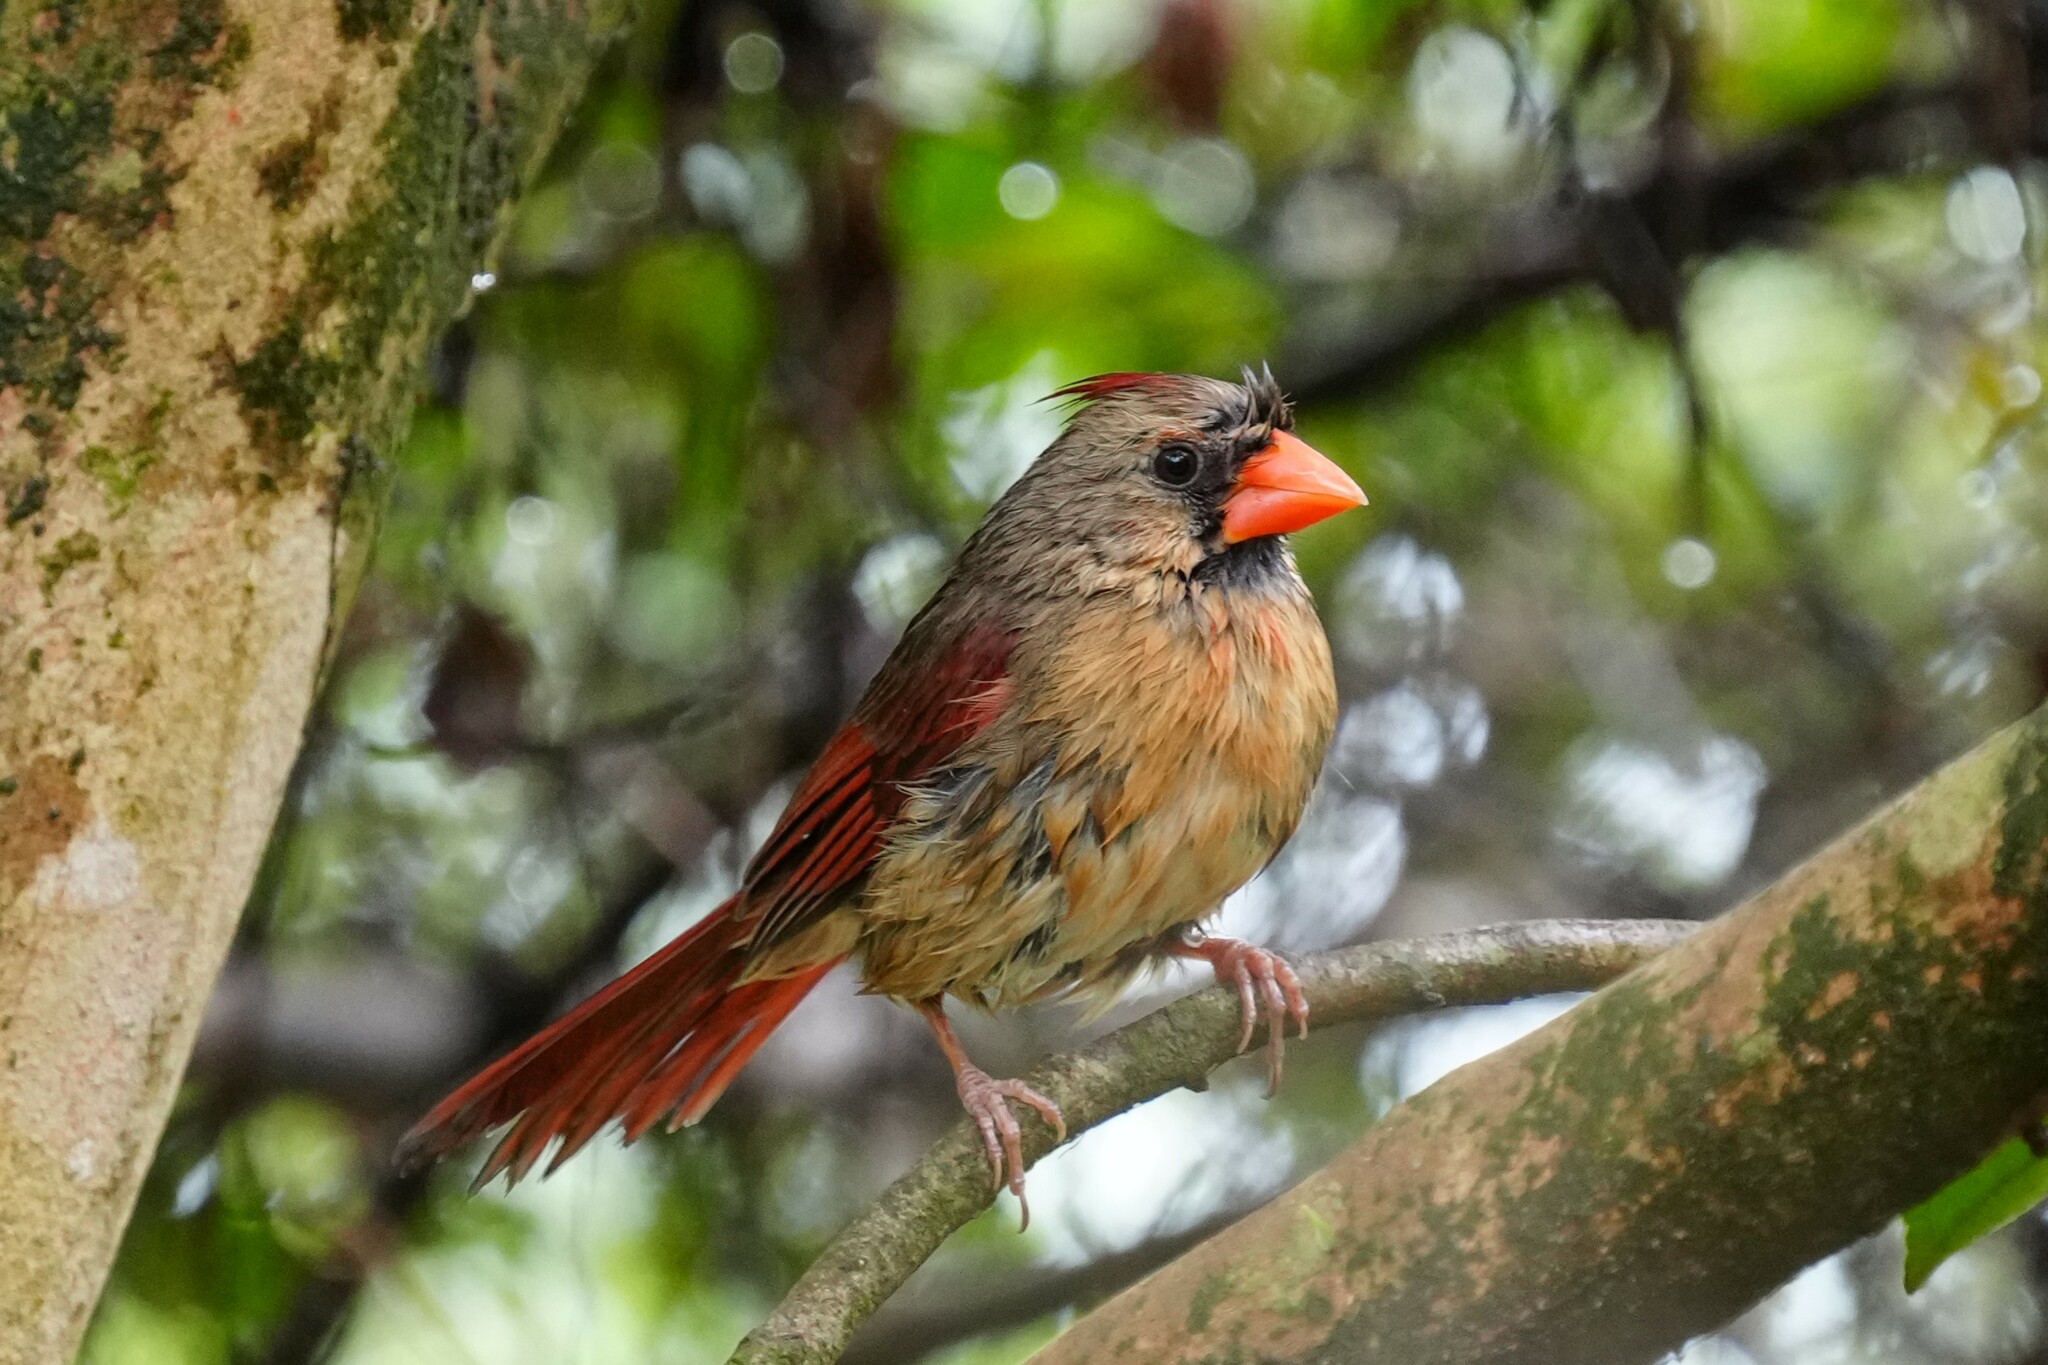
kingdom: Animalia
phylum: Chordata
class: Aves
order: Passeriformes
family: Cardinalidae
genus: Cardinalis
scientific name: Cardinalis cardinalis
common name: Northern cardinal
